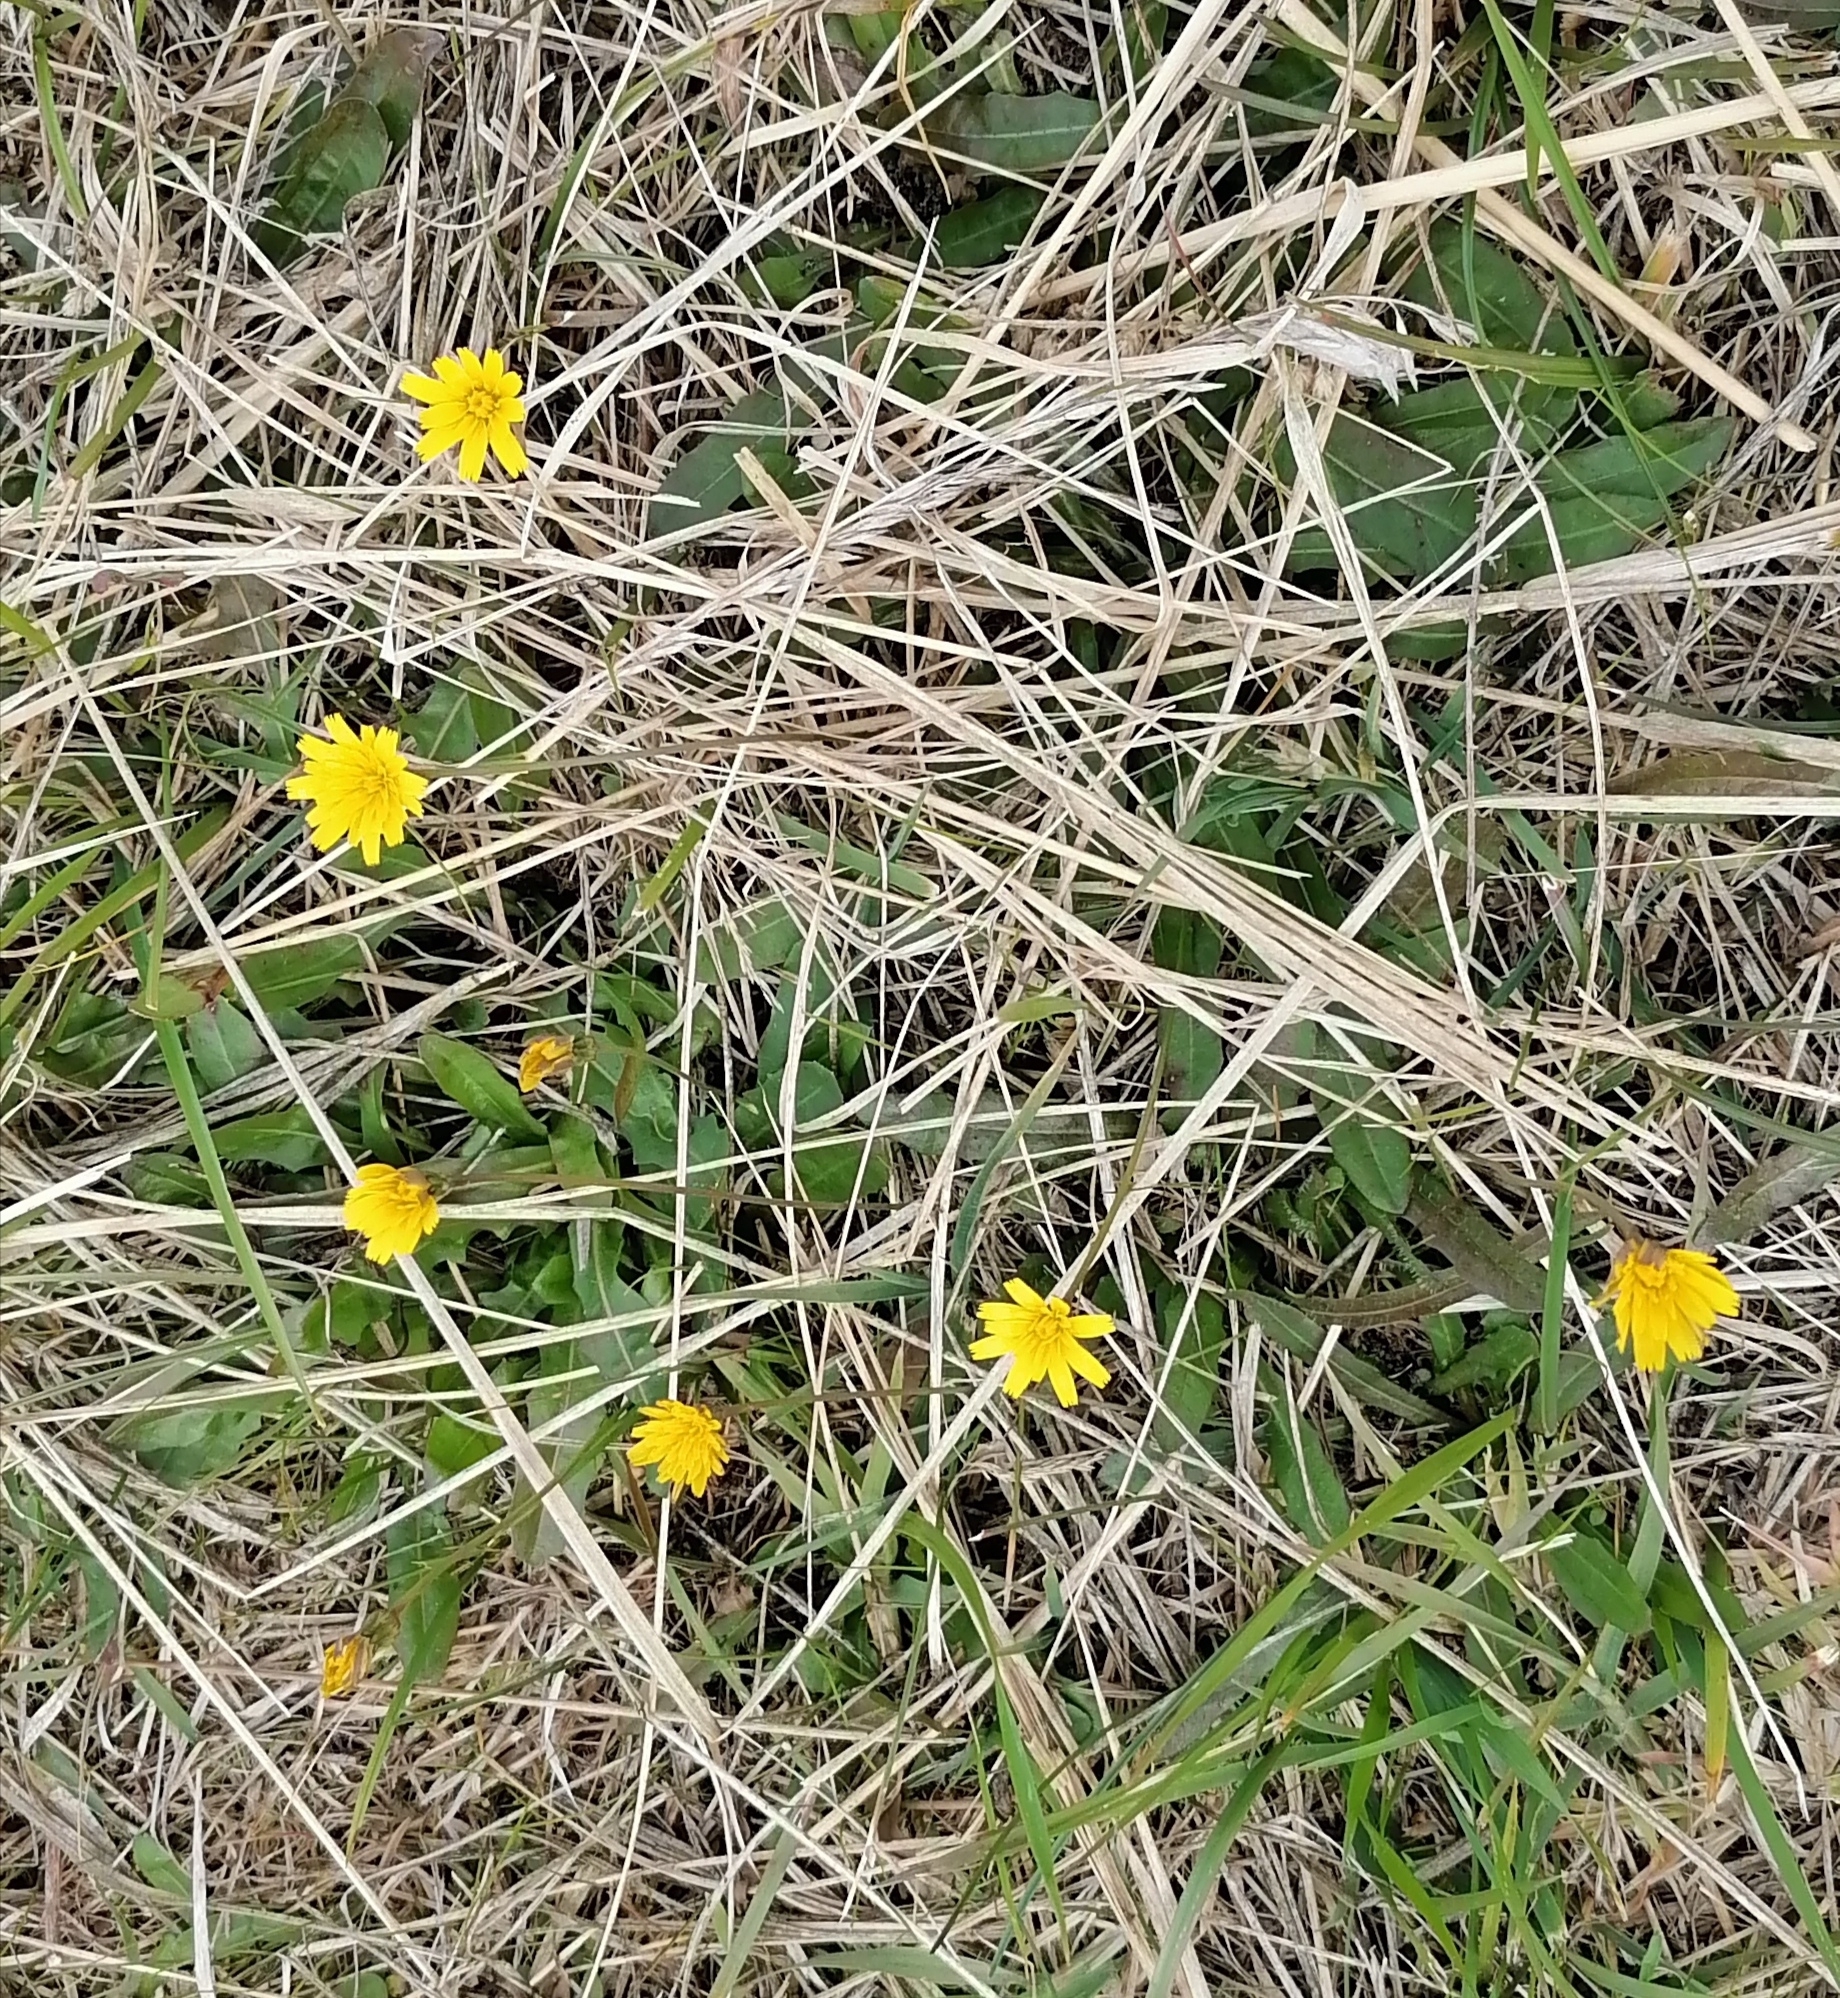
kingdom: Plantae
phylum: Tracheophyta
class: Magnoliopsida
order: Asterales
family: Asteraceae
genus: Picris
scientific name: Picris hieracioides
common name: Hawkweed oxtongue
